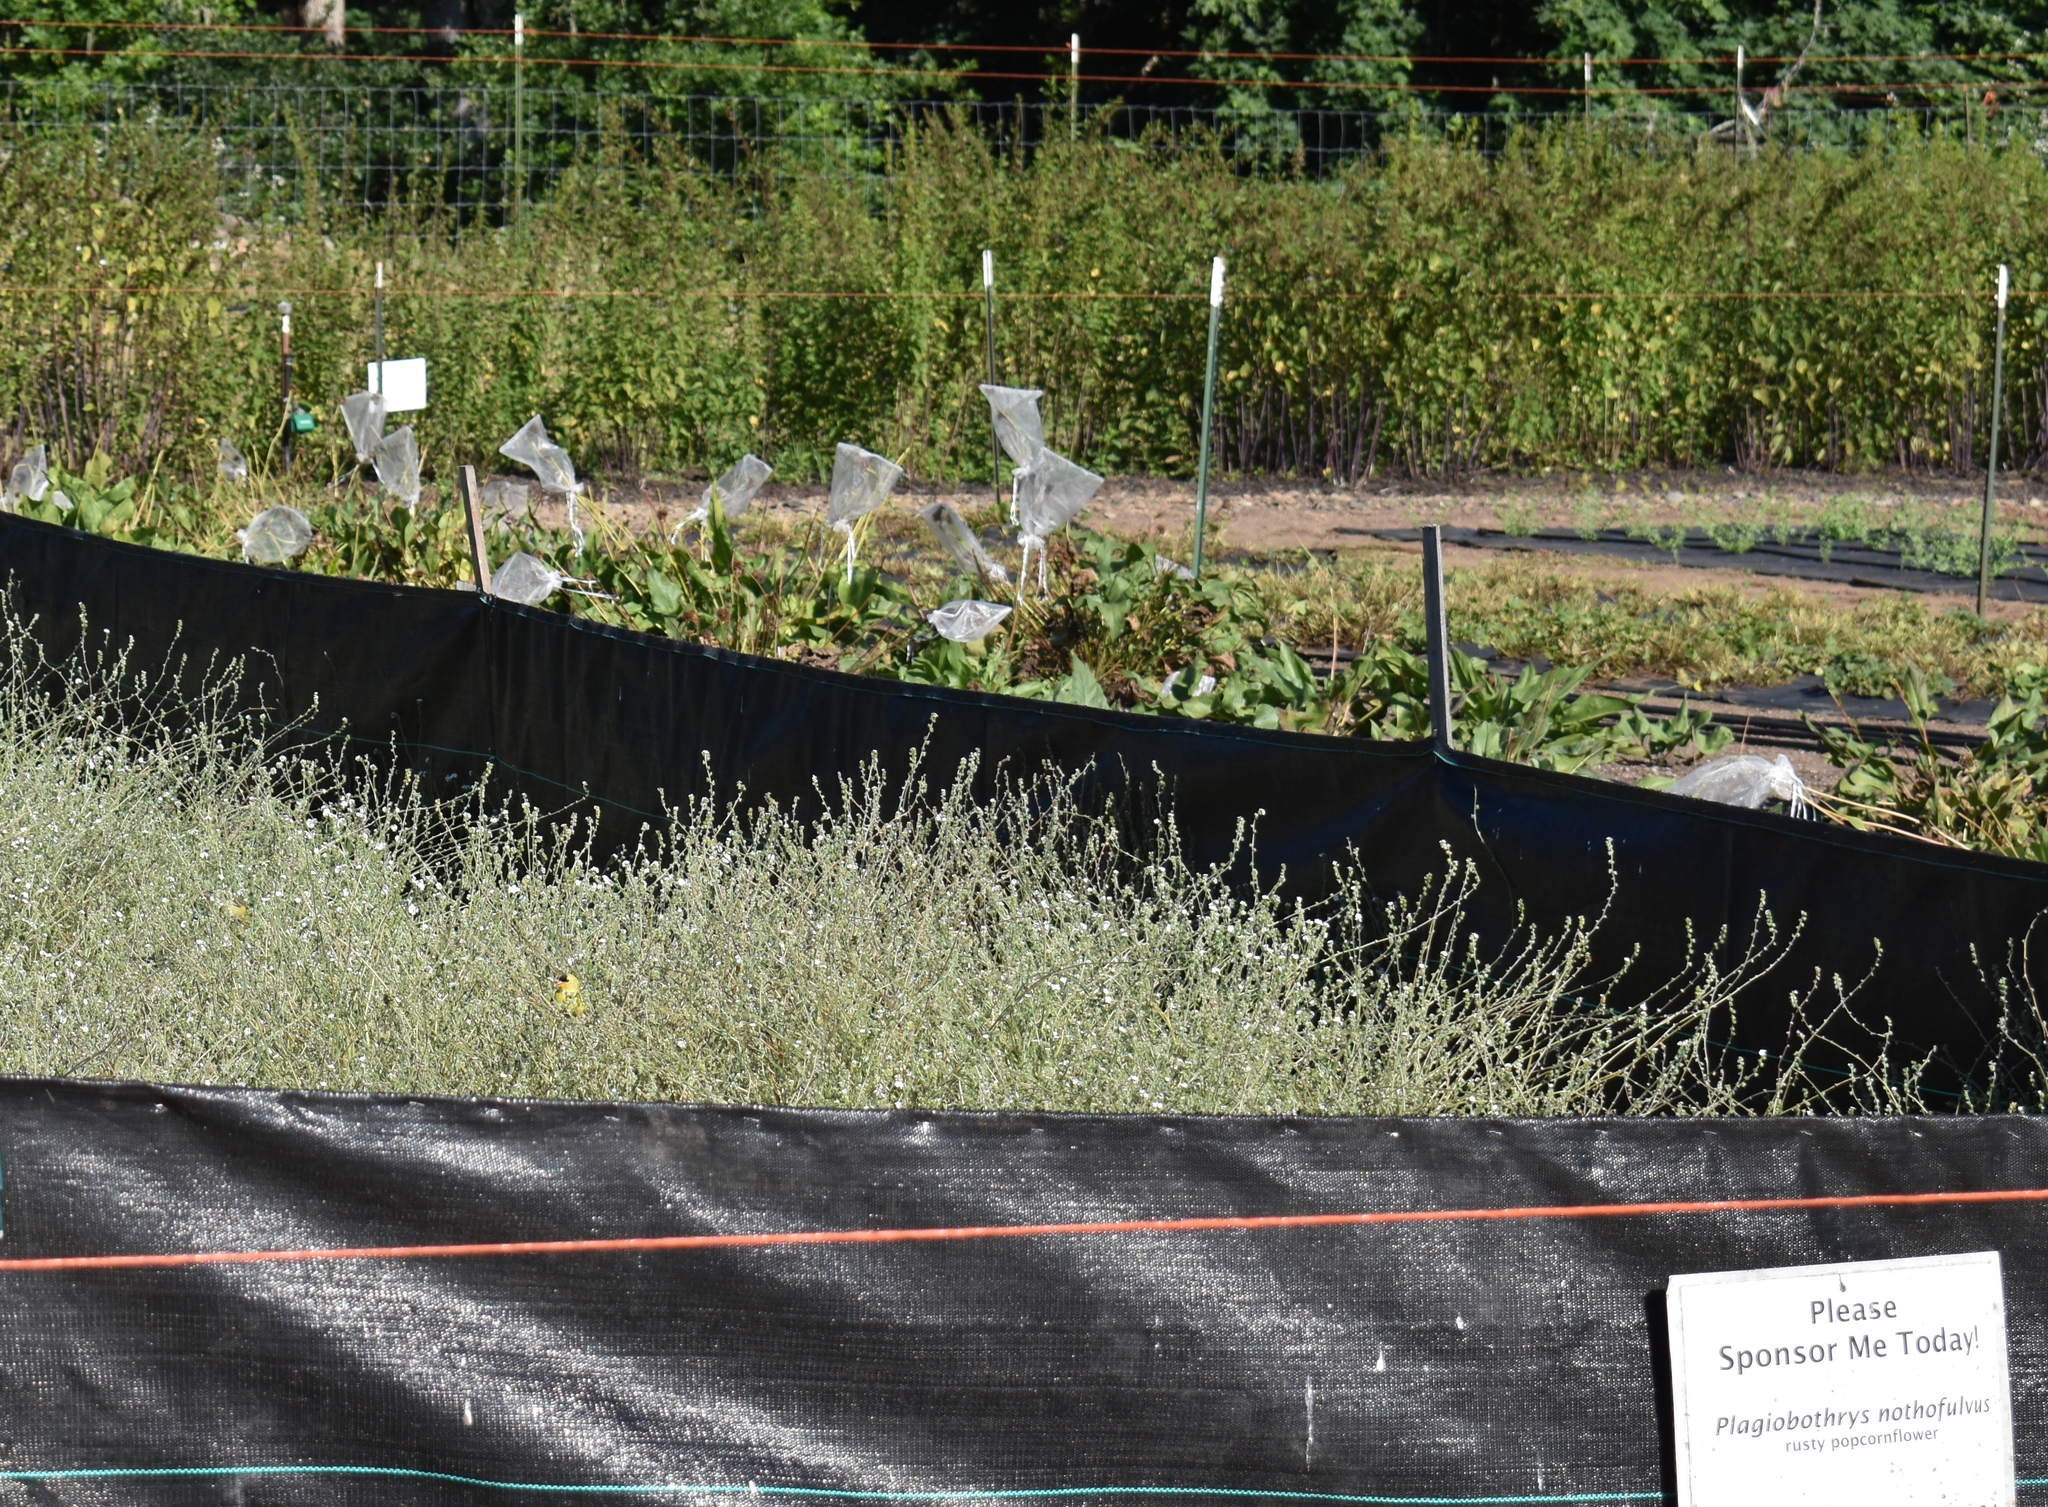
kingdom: Animalia
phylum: Chordata
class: Aves
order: Passeriformes
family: Fringillidae
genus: Spinus
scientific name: Spinus tristis
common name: American goldfinch
